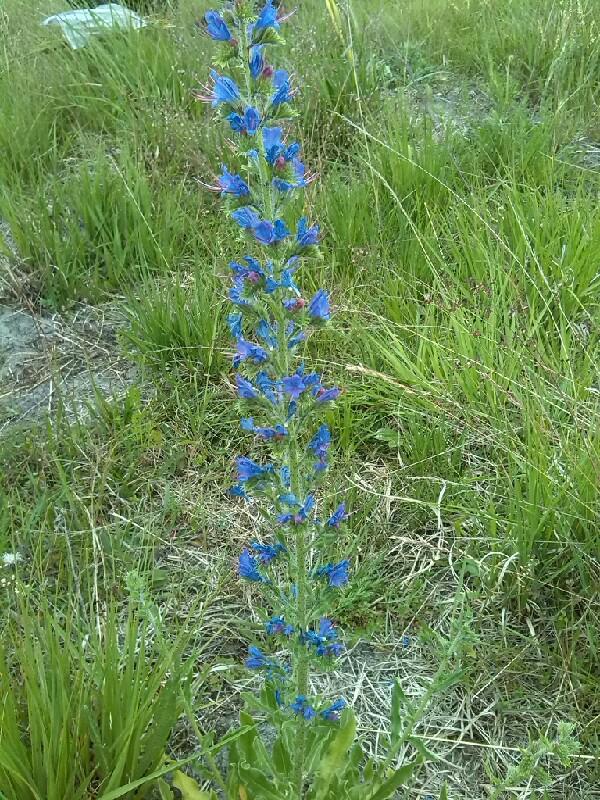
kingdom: Plantae
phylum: Tracheophyta
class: Magnoliopsida
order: Boraginales
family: Boraginaceae
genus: Echium
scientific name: Echium vulgare
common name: Common viper's bugloss
